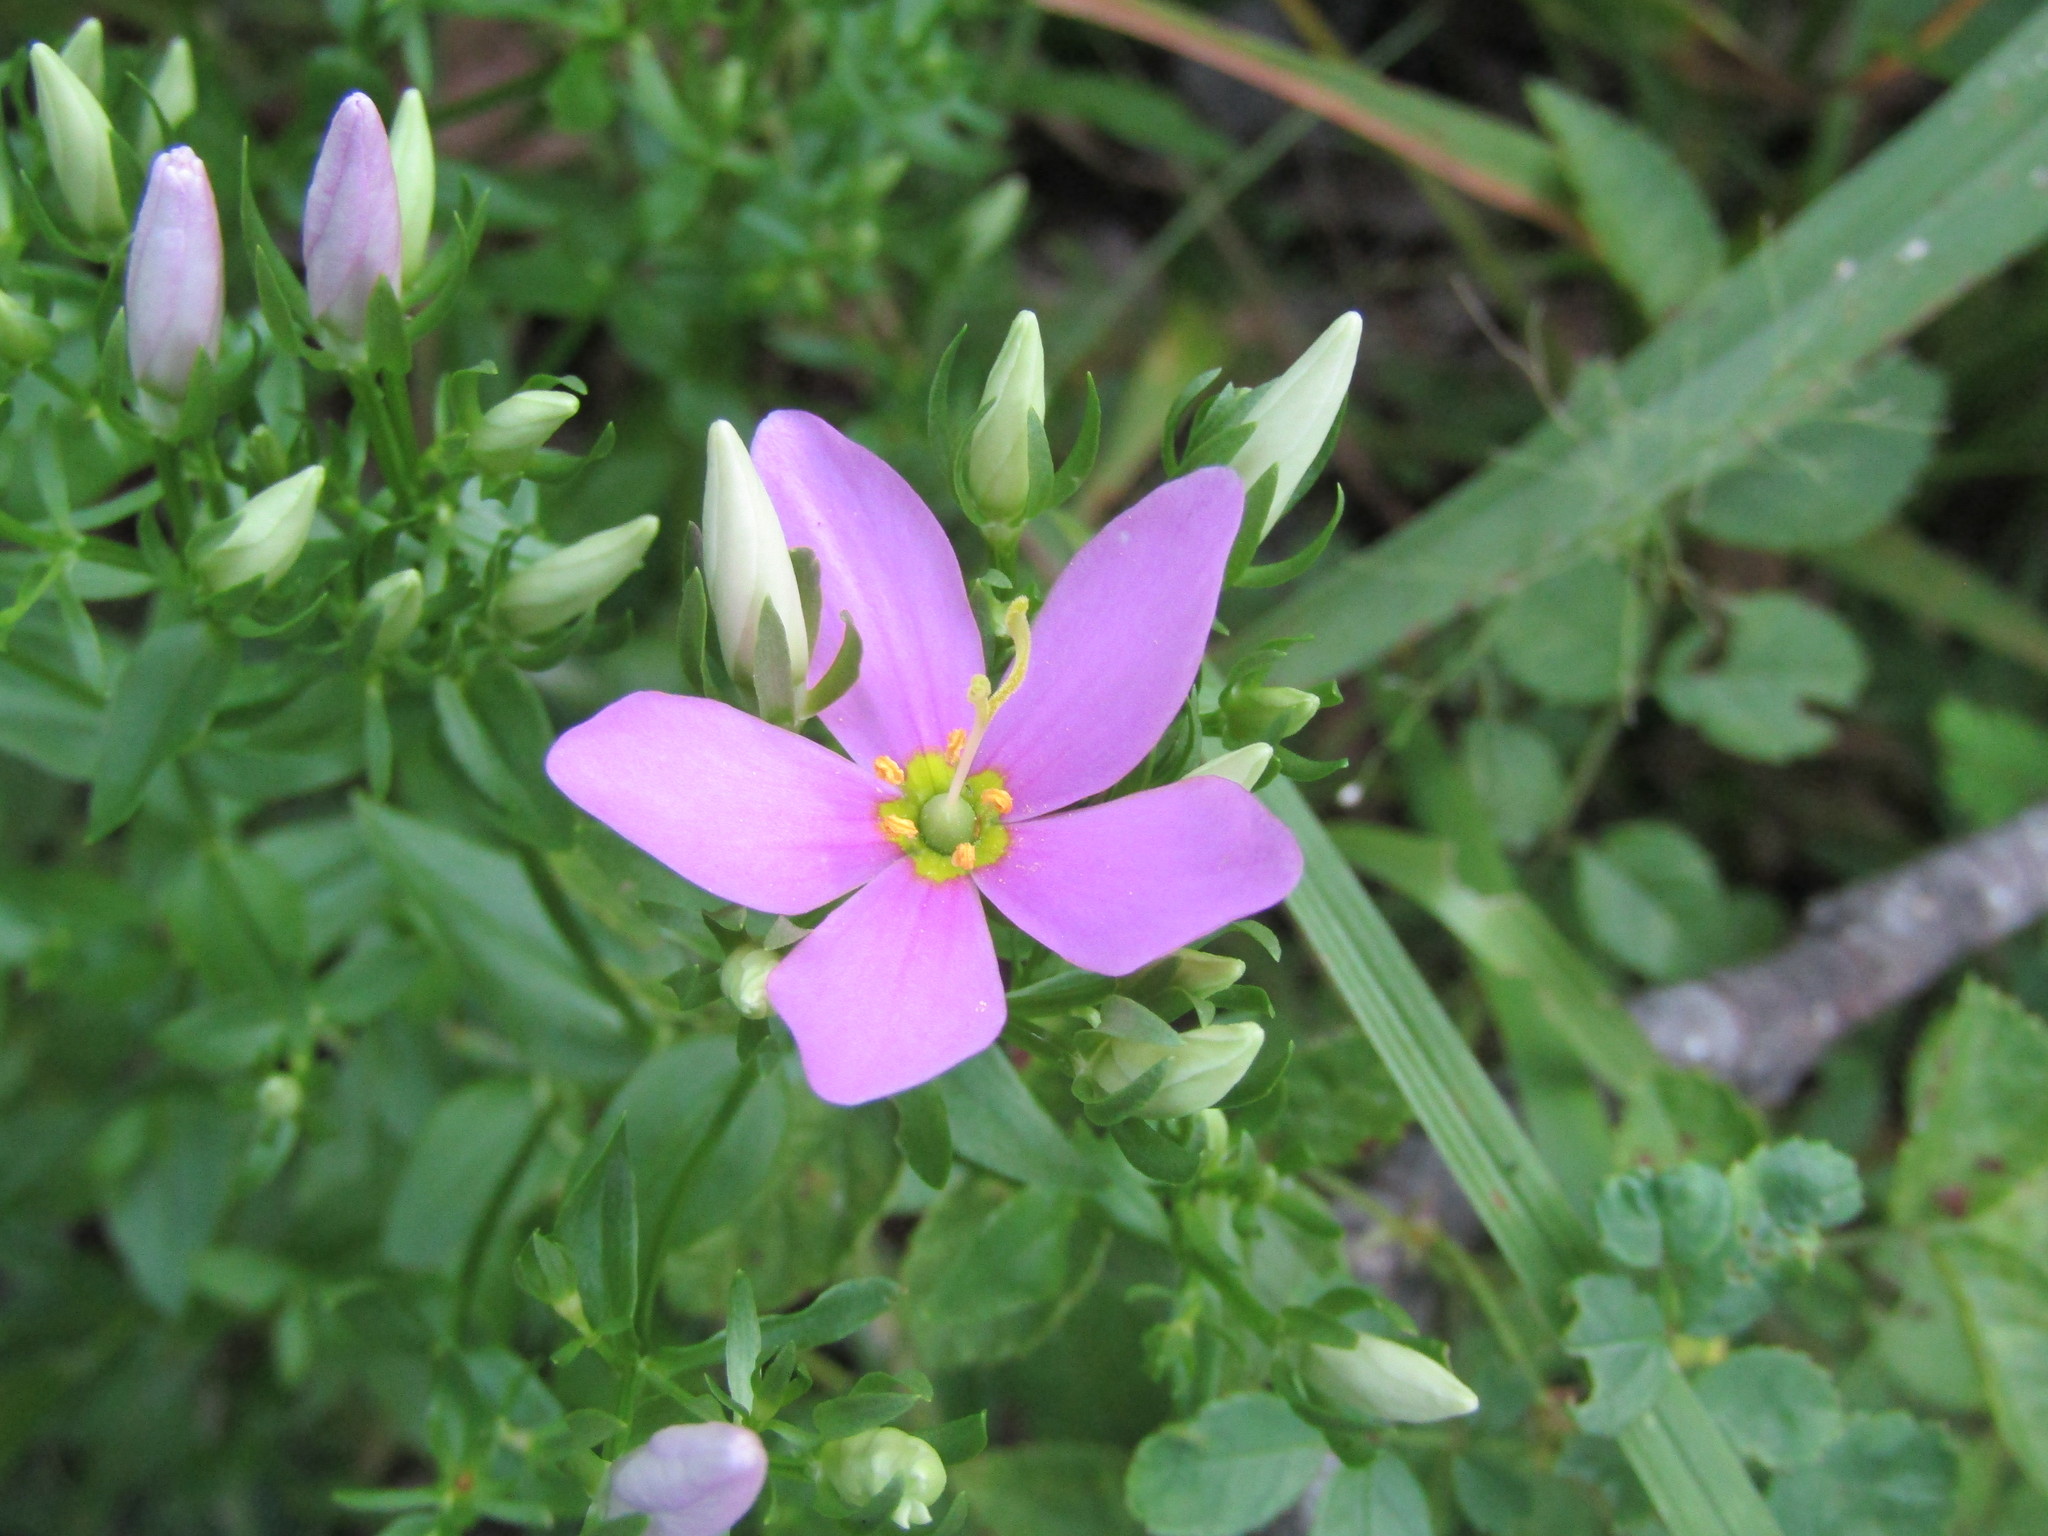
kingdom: Plantae
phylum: Tracheophyta
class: Magnoliopsida
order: Gentianales
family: Gentianaceae
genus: Sabatia
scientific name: Sabatia angularis
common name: Rose-pink
